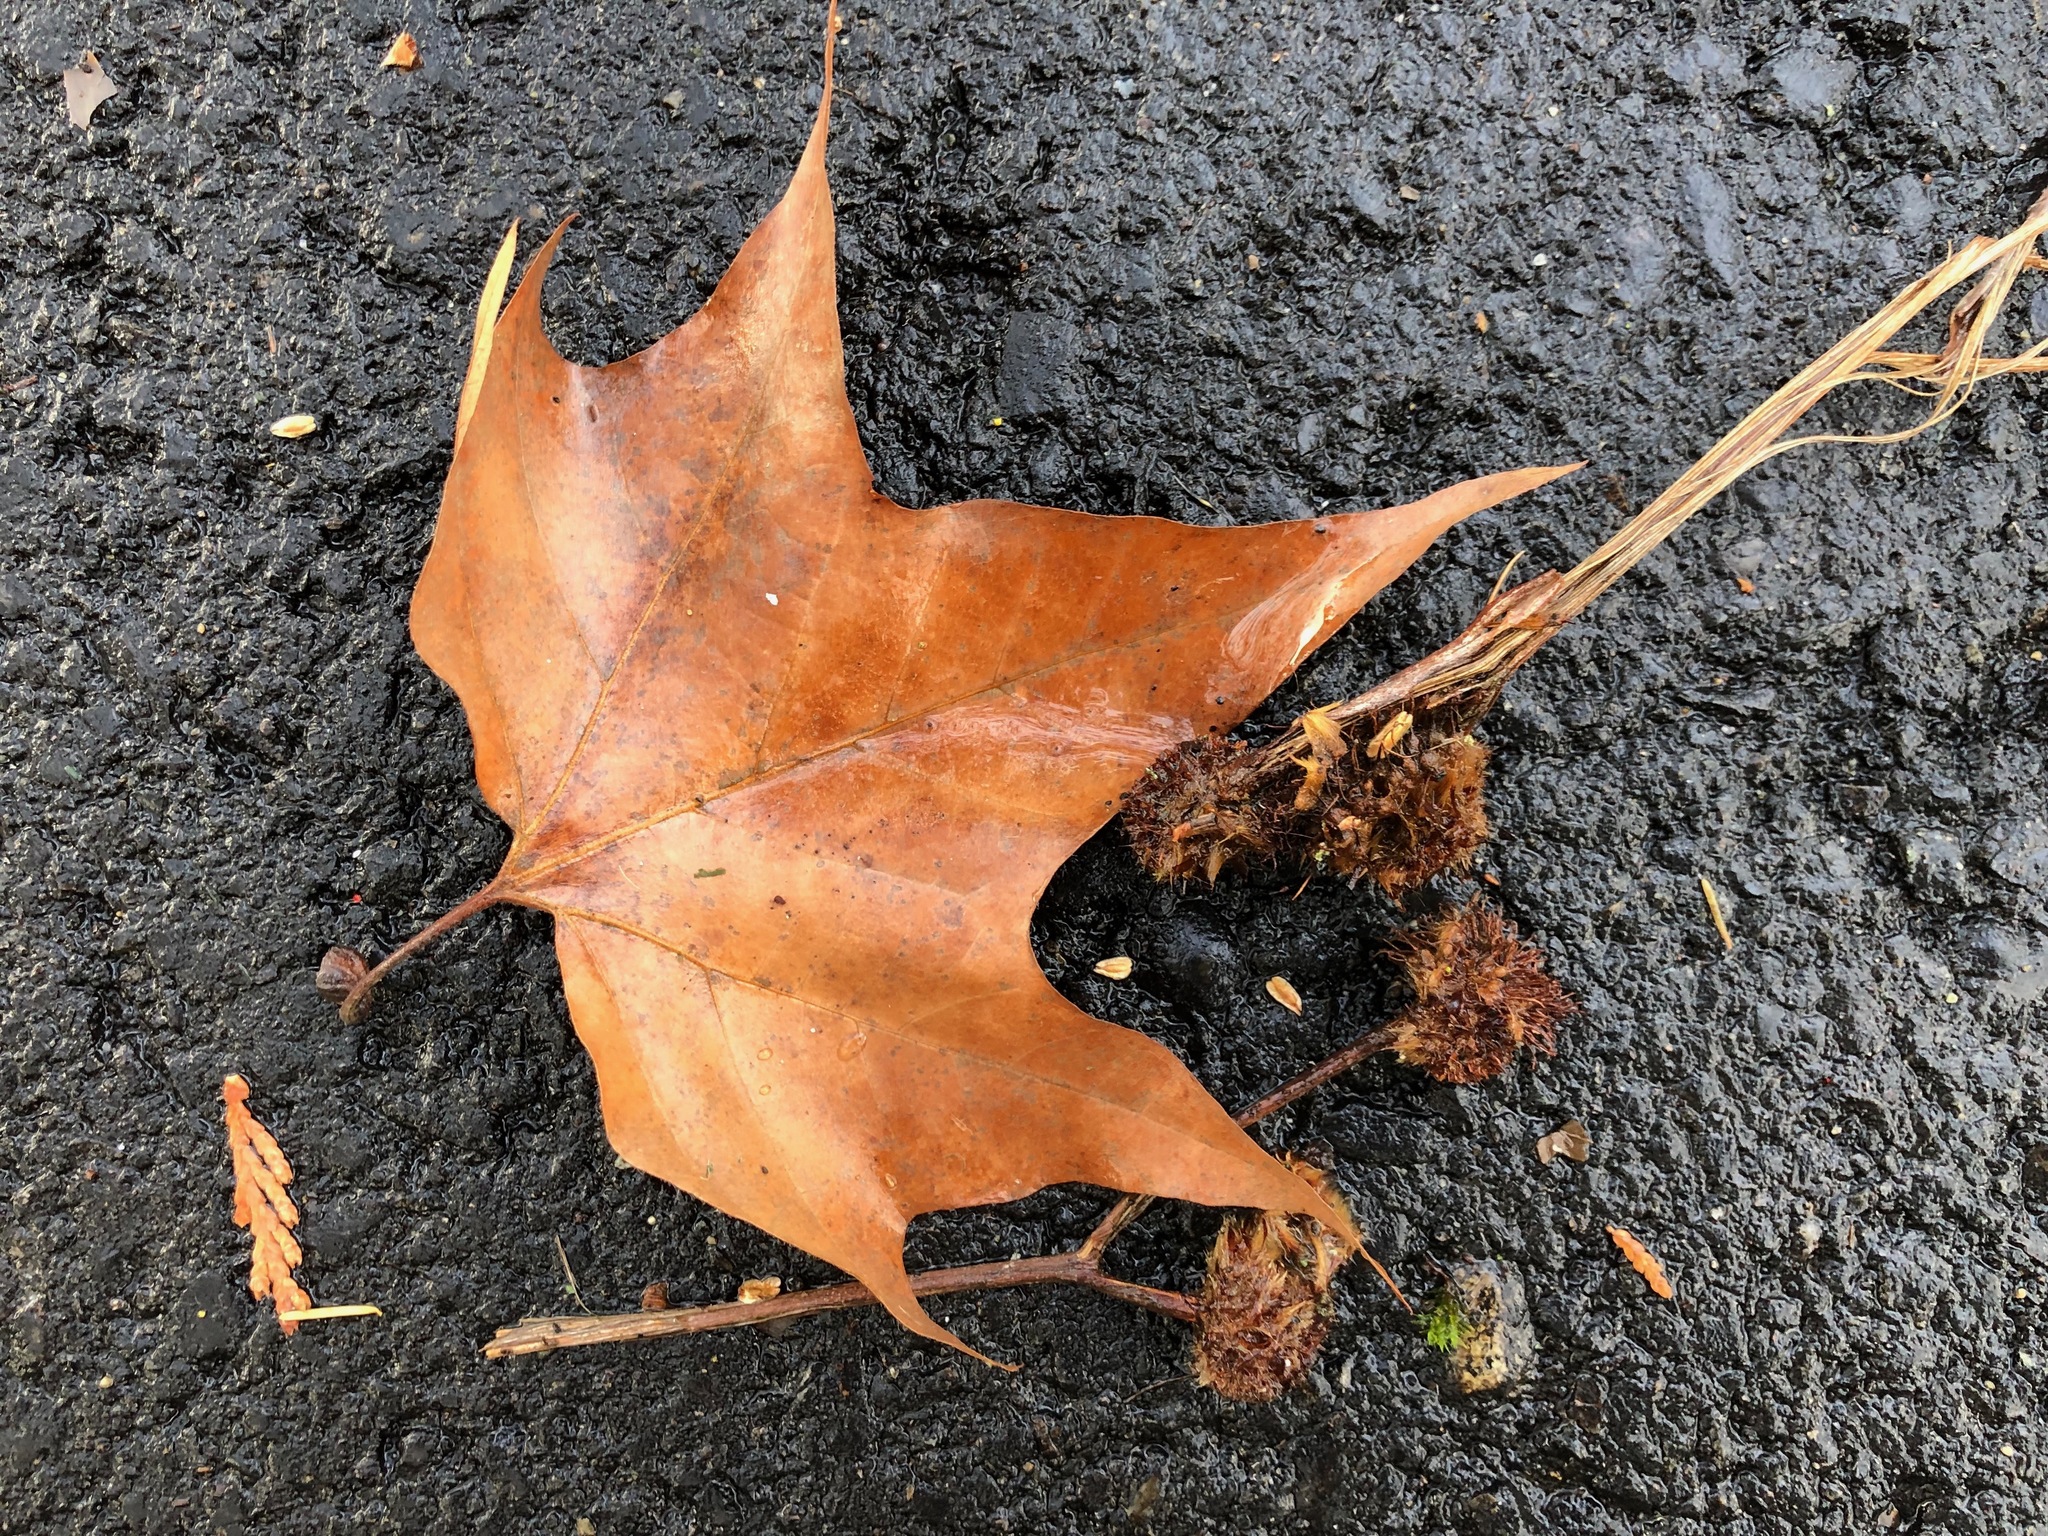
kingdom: Plantae
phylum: Tracheophyta
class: Magnoliopsida
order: Proteales
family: Platanaceae
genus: Platanus
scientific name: Platanus hispanica
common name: London plane
